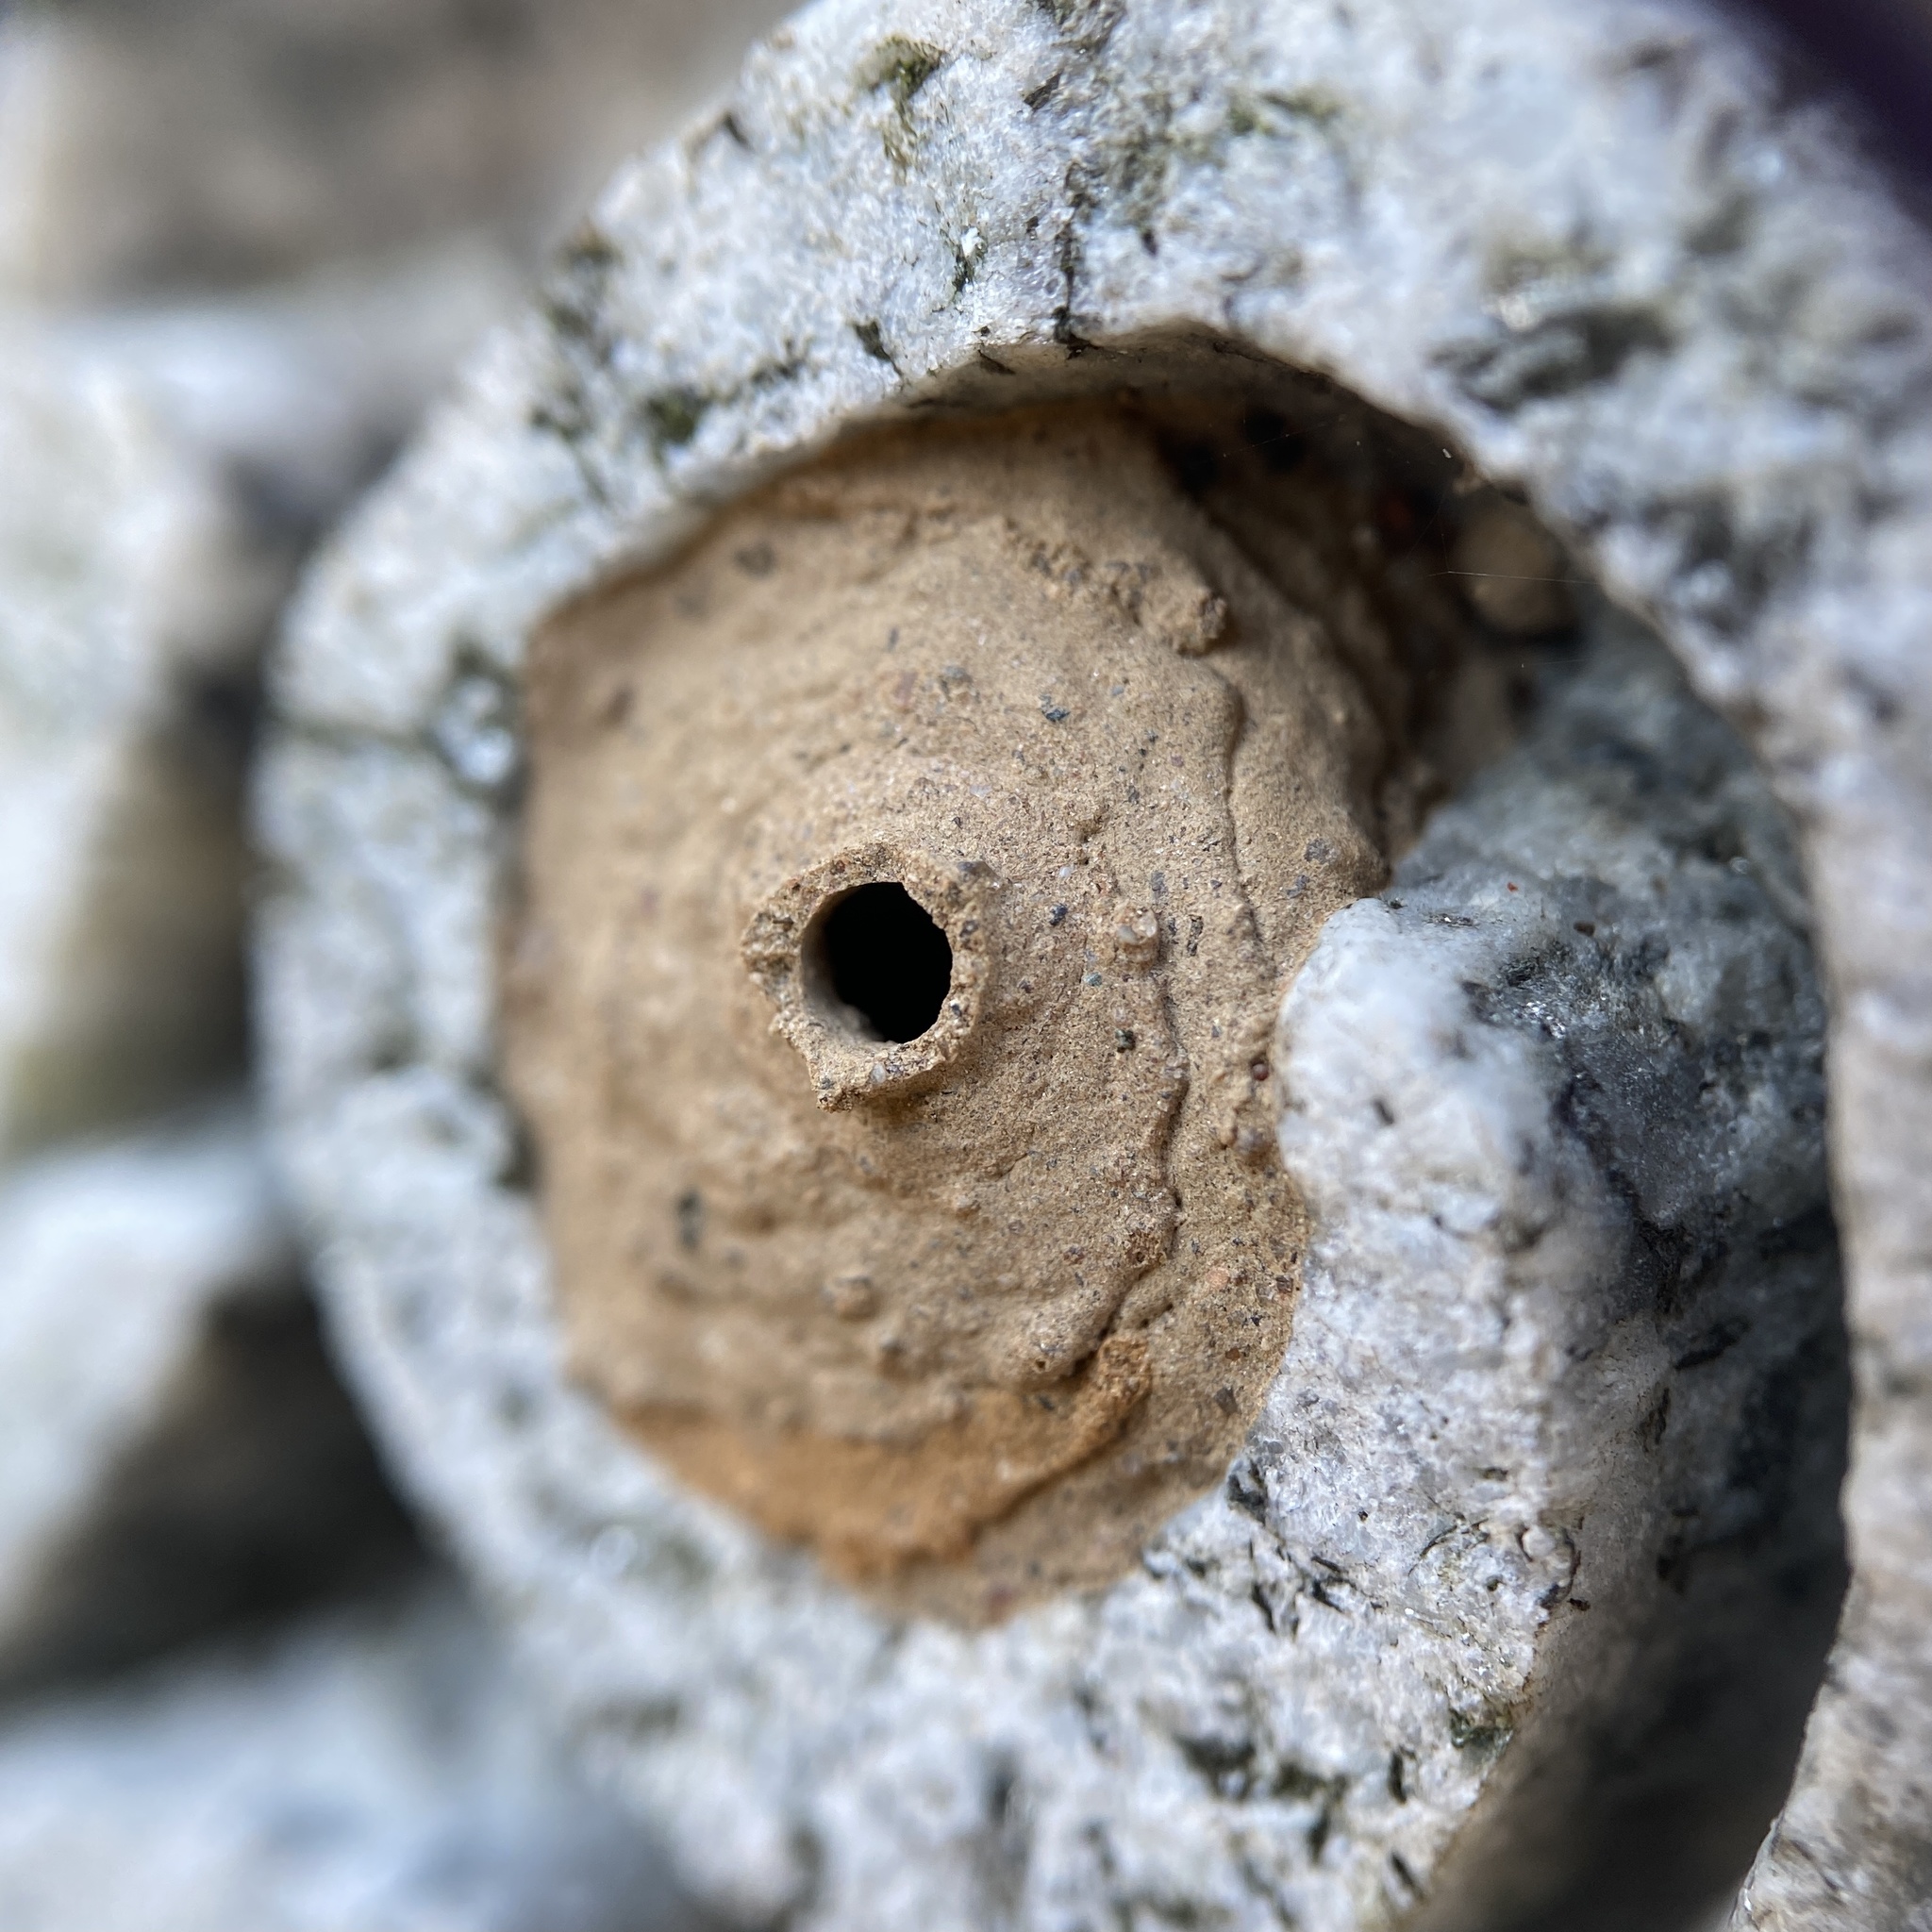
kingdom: Animalia
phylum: Arthropoda
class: Insecta
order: Hymenoptera
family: Vespidae
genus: Eumenes
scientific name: Eumenes
